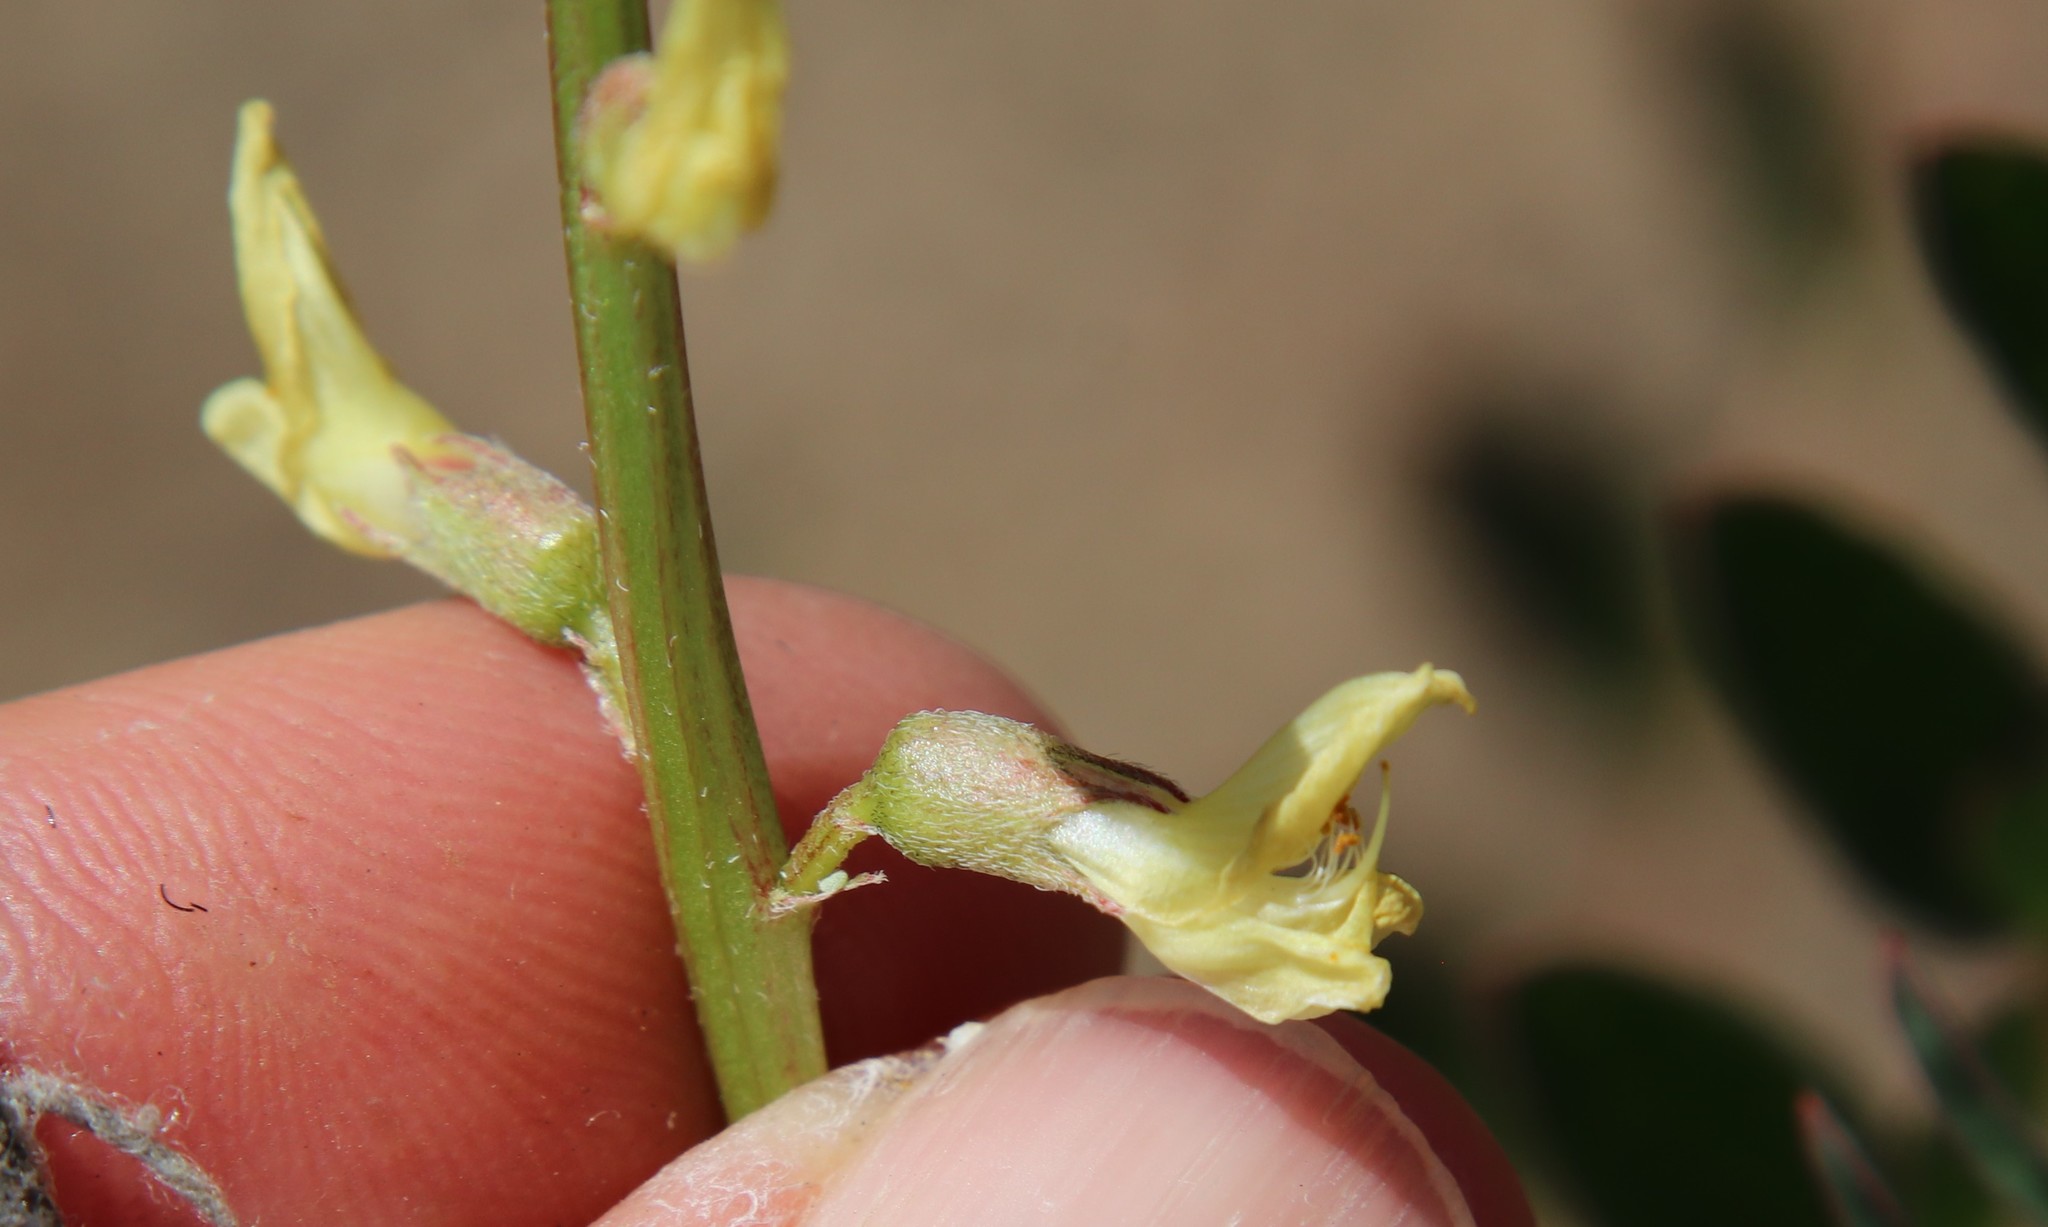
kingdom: Plantae
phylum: Tracheophyta
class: Magnoliopsida
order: Fabales
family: Fabaceae
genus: Astragalus
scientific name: Astragalus deanei
